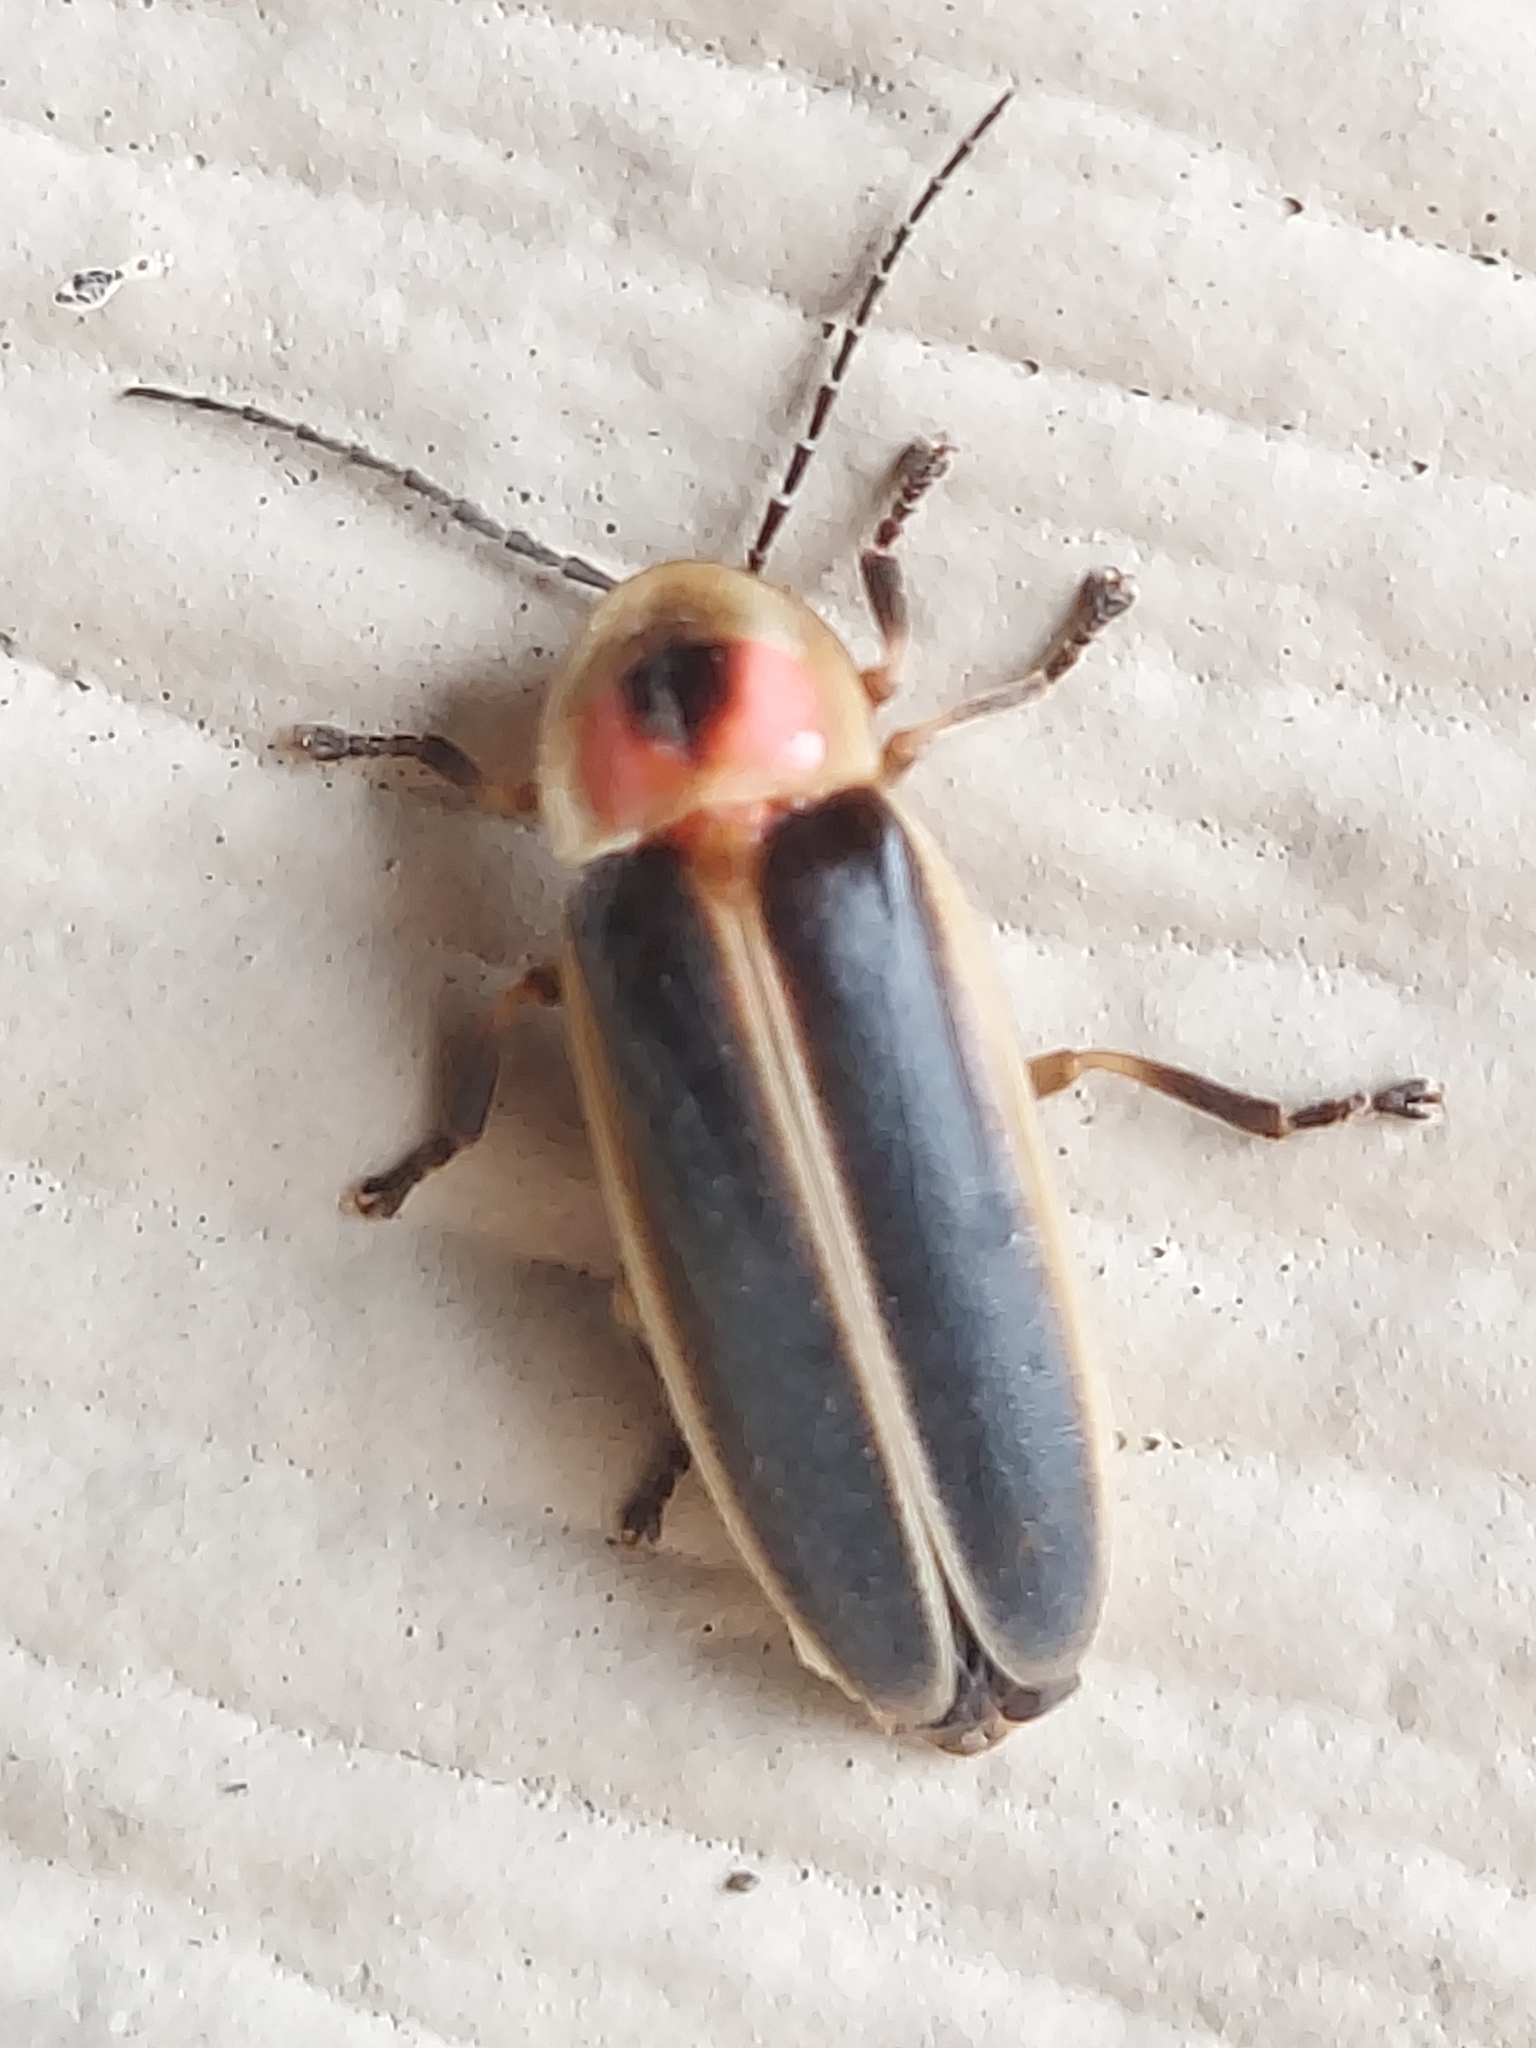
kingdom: Animalia
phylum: Arthropoda
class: Insecta
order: Coleoptera
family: Lampyridae
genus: Photinus
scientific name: Photinus pyralis
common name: Big dipper firefly
